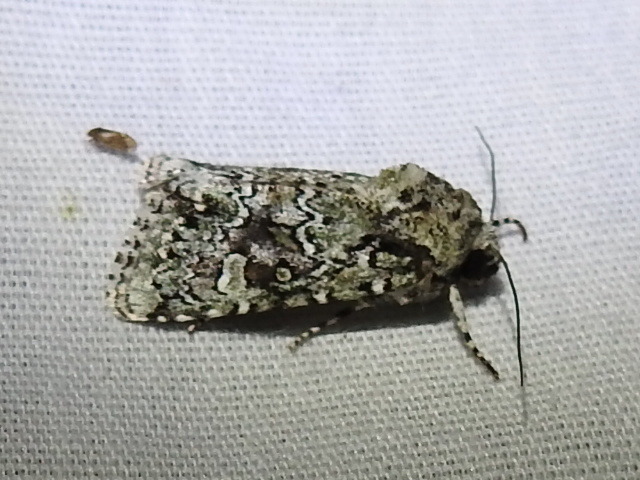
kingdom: Animalia
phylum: Arthropoda
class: Insecta
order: Lepidoptera
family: Noctuidae
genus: Lacinipolia
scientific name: Lacinipolia laudabilis
